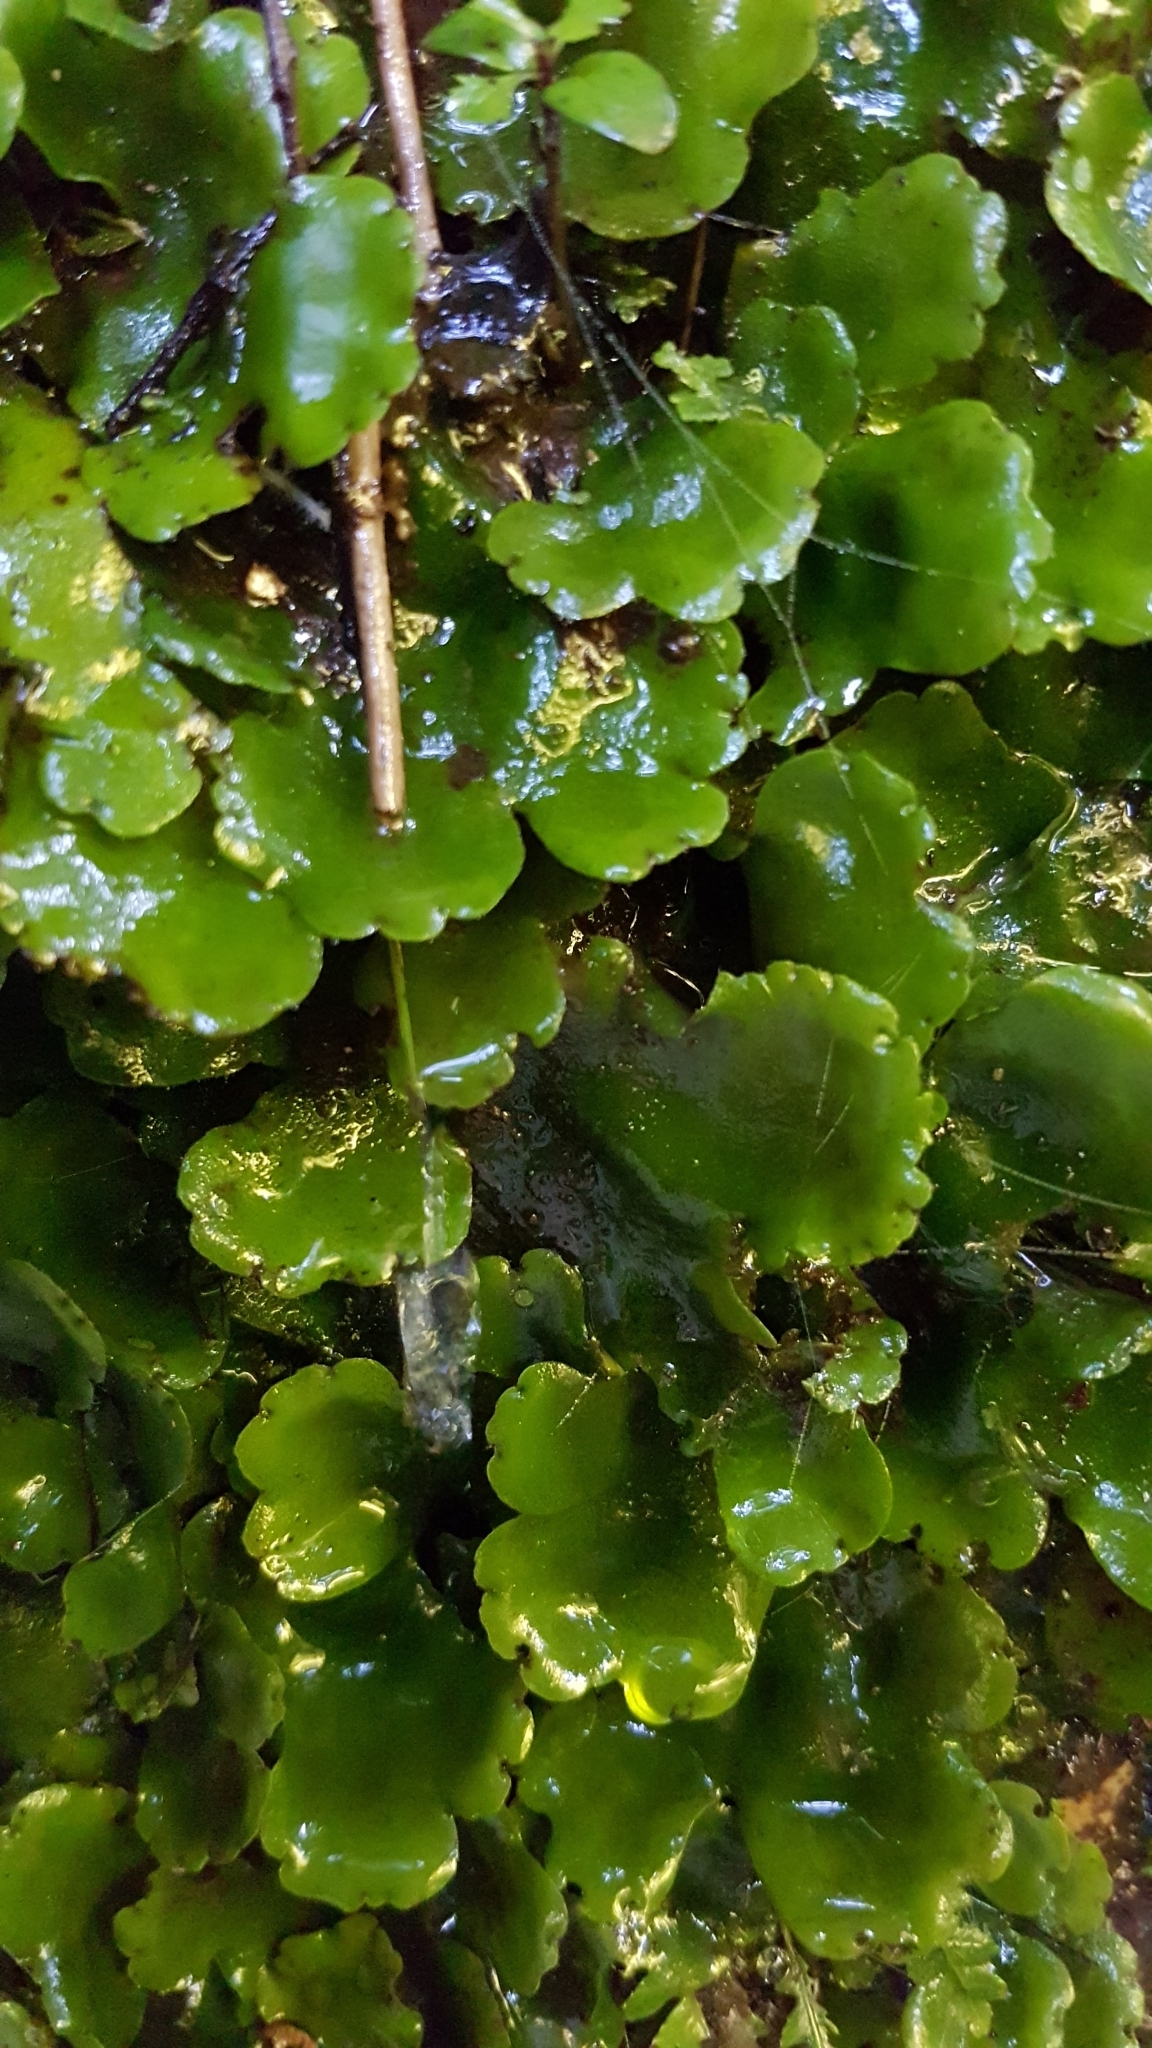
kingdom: Plantae
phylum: Marchantiophyta
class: Marchantiopsida
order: Marchantiales
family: Monocleaceae
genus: Monoclea
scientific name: Monoclea forsteri
